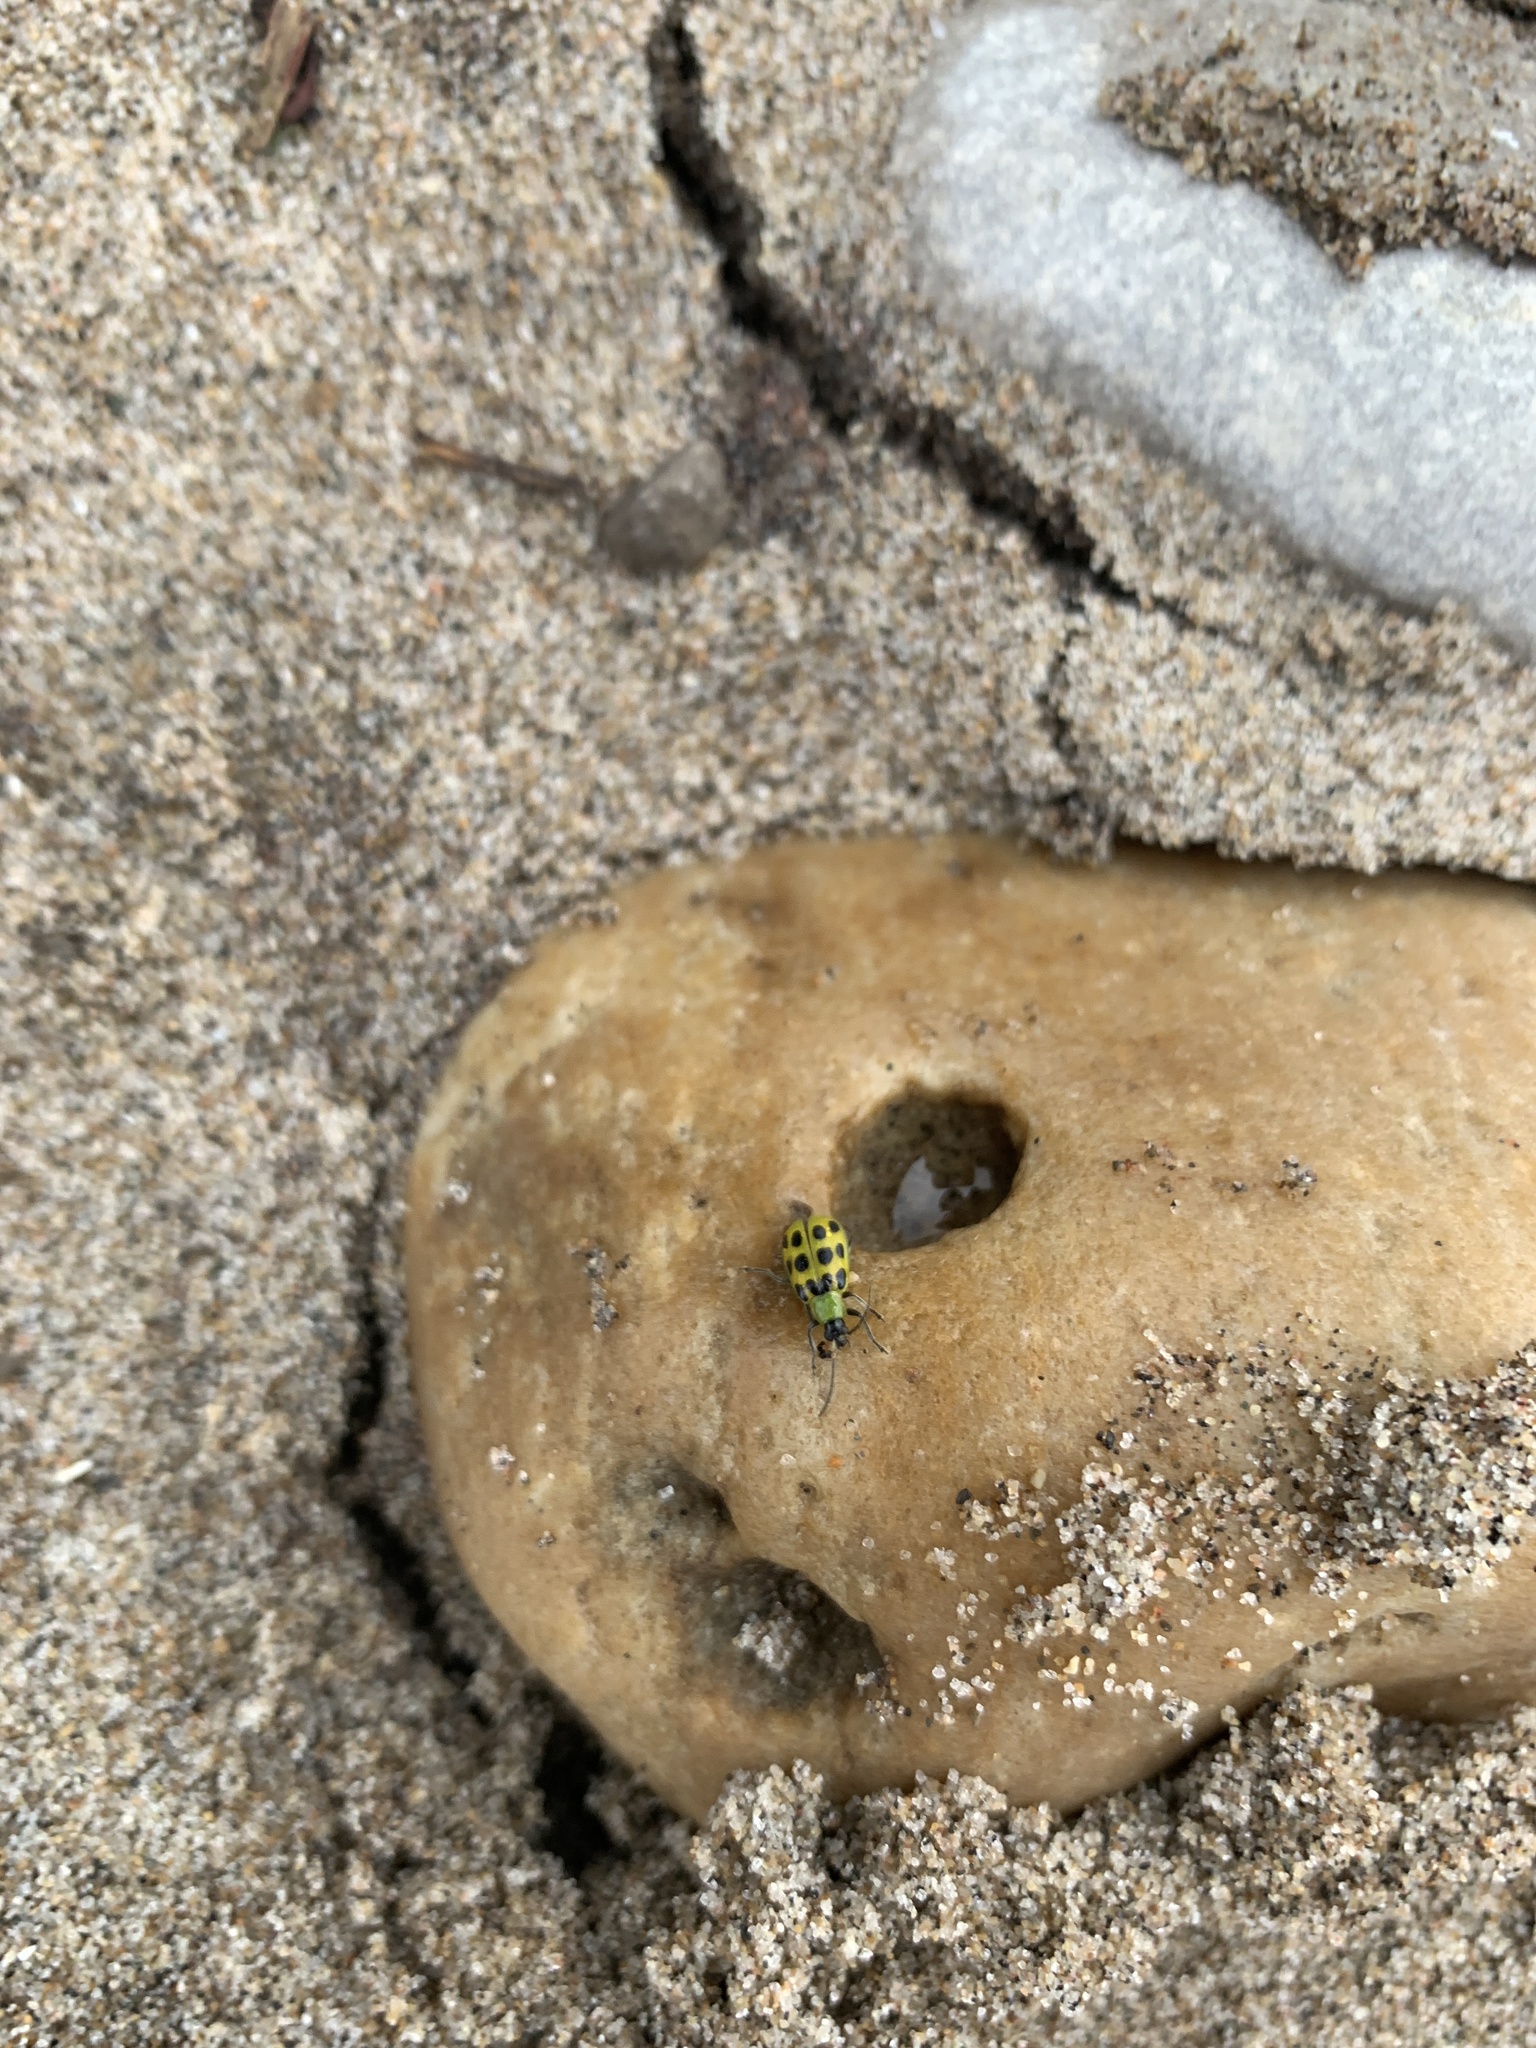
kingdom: Animalia
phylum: Arthropoda
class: Insecta
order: Coleoptera
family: Chrysomelidae
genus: Diabrotica
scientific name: Diabrotica undecimpunctata
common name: Spotted cucumber beetle
